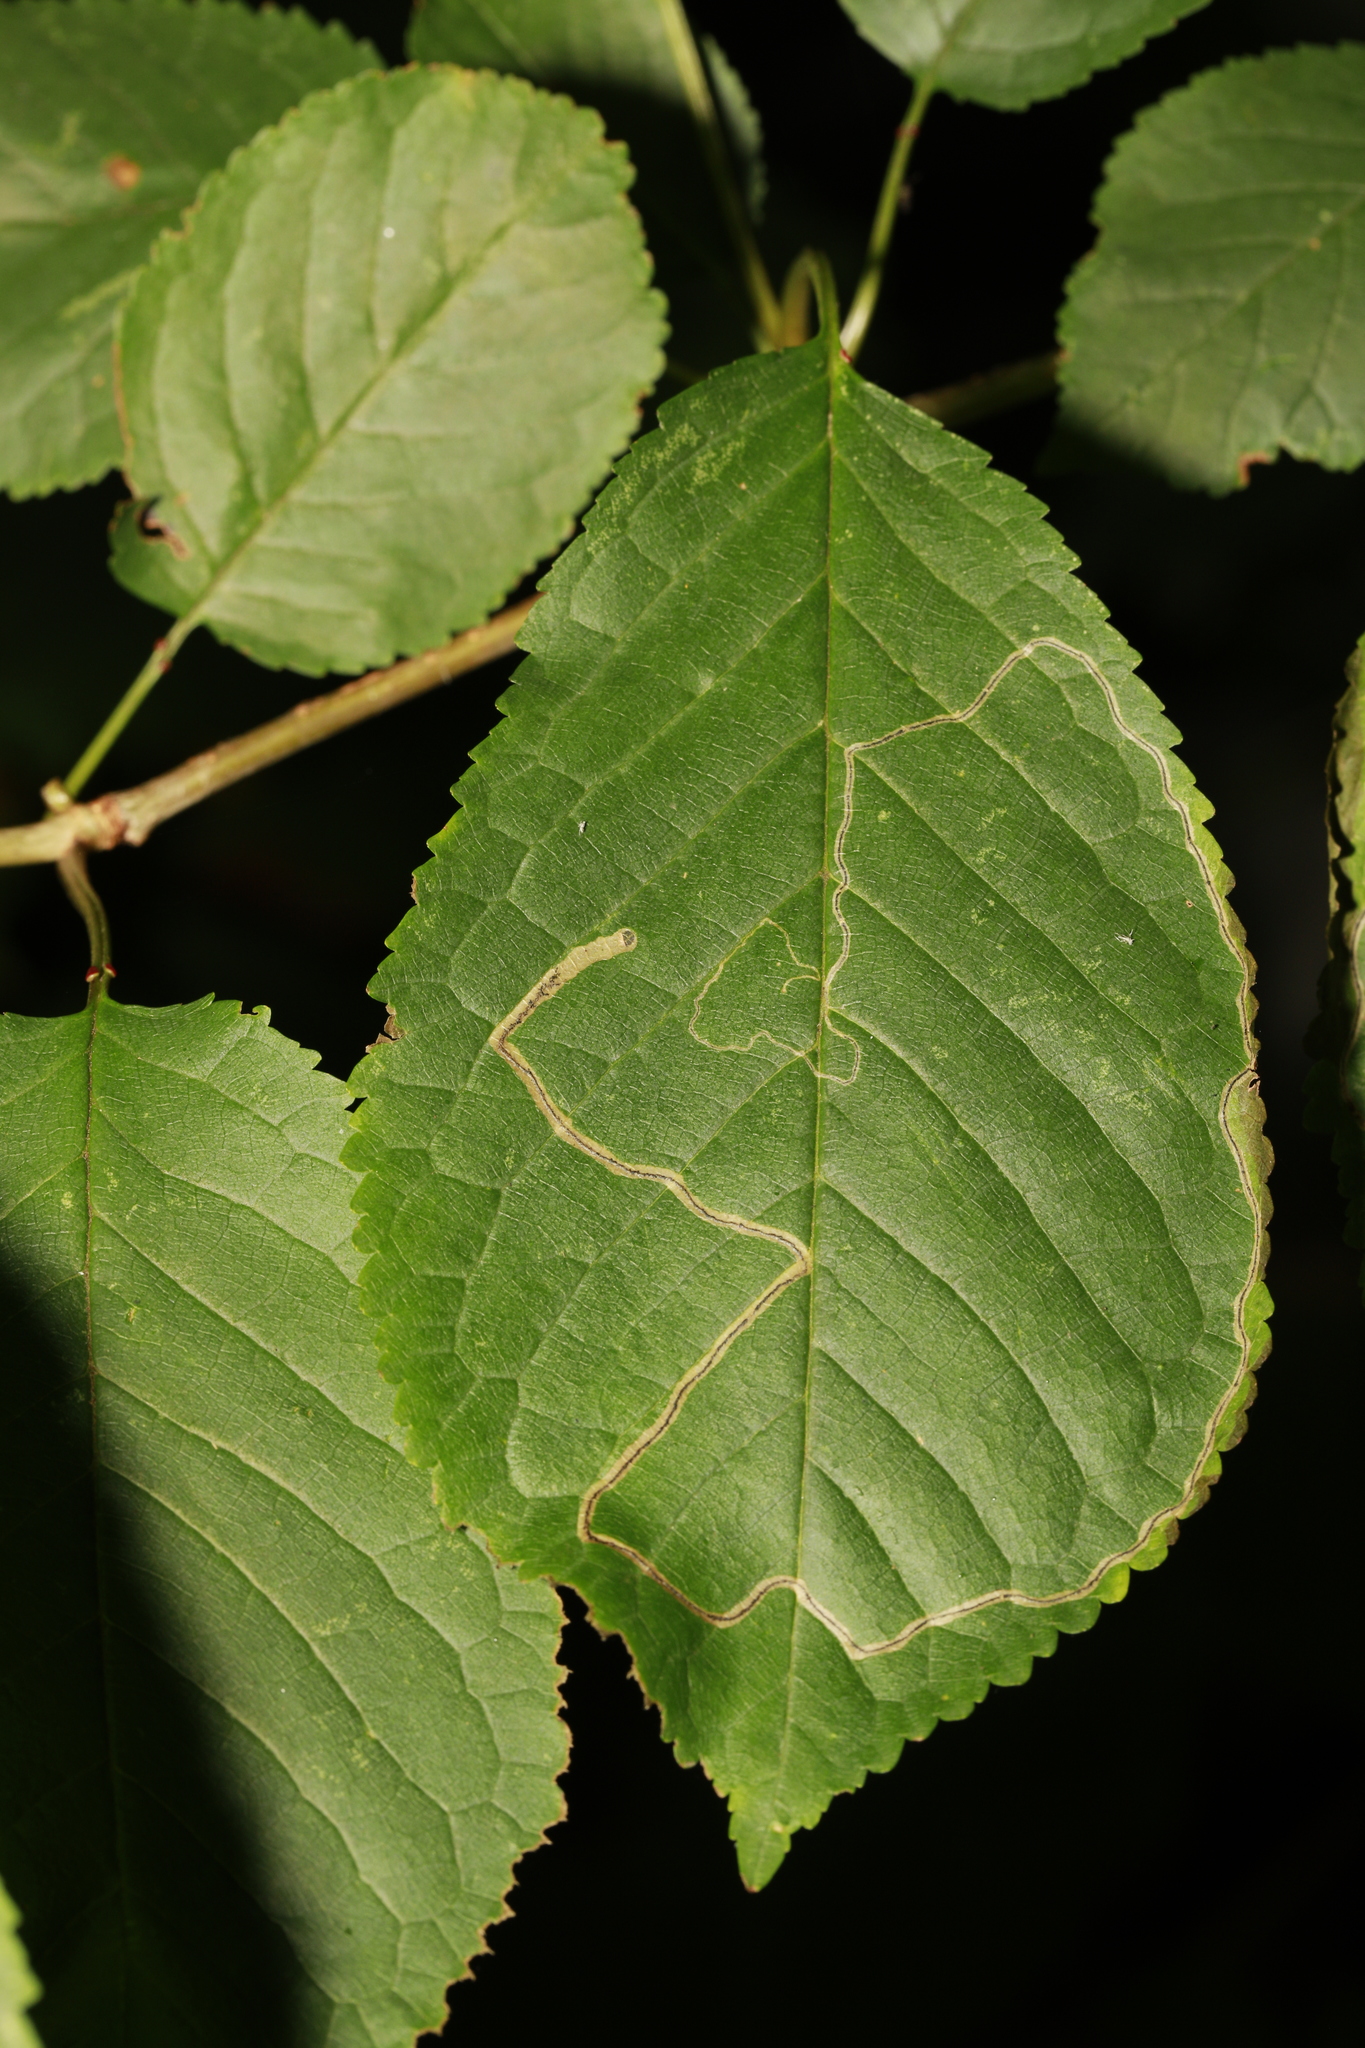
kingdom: Animalia
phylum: Arthropoda
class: Insecta
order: Lepidoptera
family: Lyonetiidae
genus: Lyonetia
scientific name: Lyonetia clerkella
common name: Apple leaf miner
